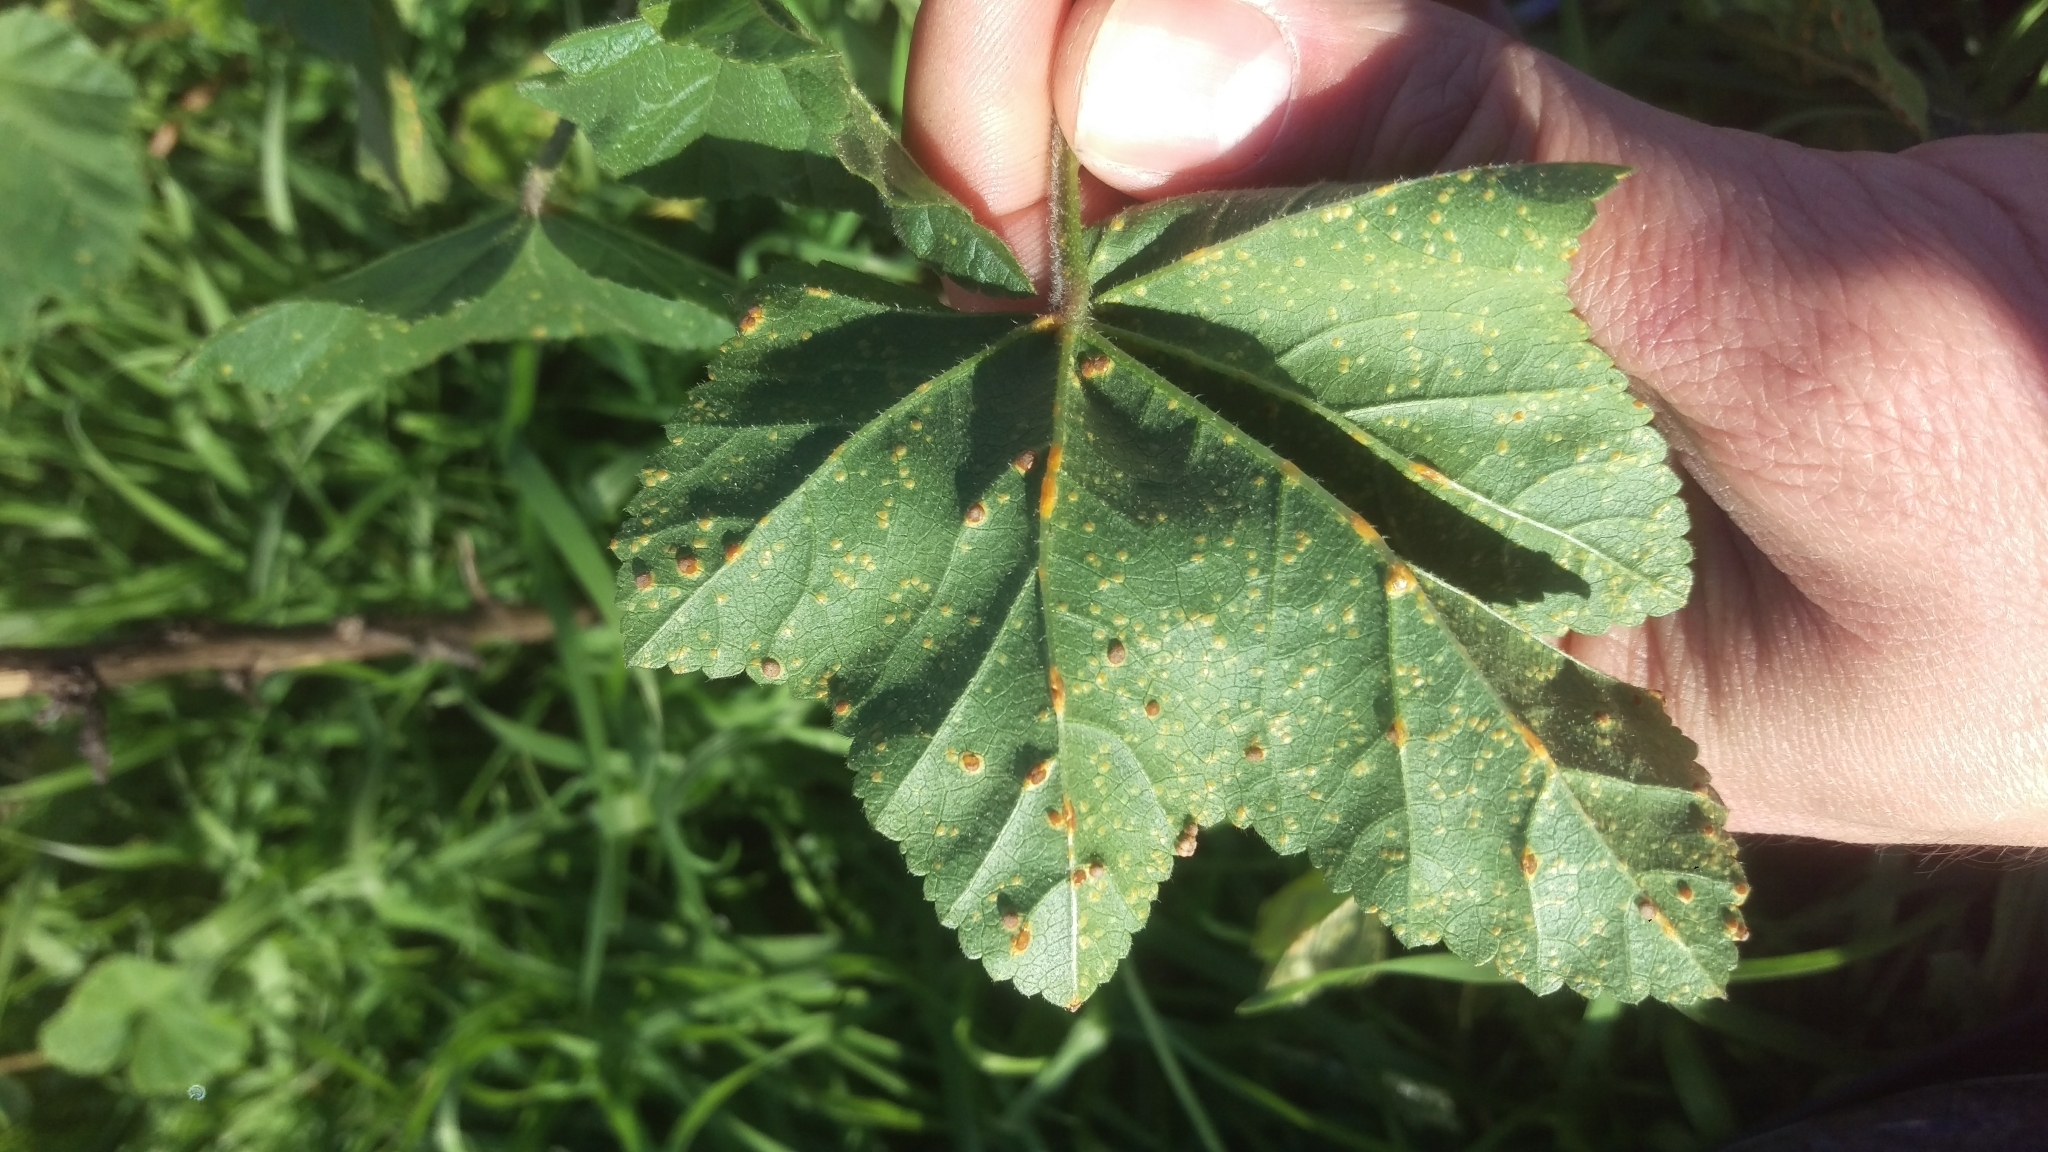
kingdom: Fungi
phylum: Basidiomycota
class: Pucciniomycetes
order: Pucciniales
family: Pucciniaceae
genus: Puccinia
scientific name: Puccinia malvacearum
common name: Hollyhock rust
